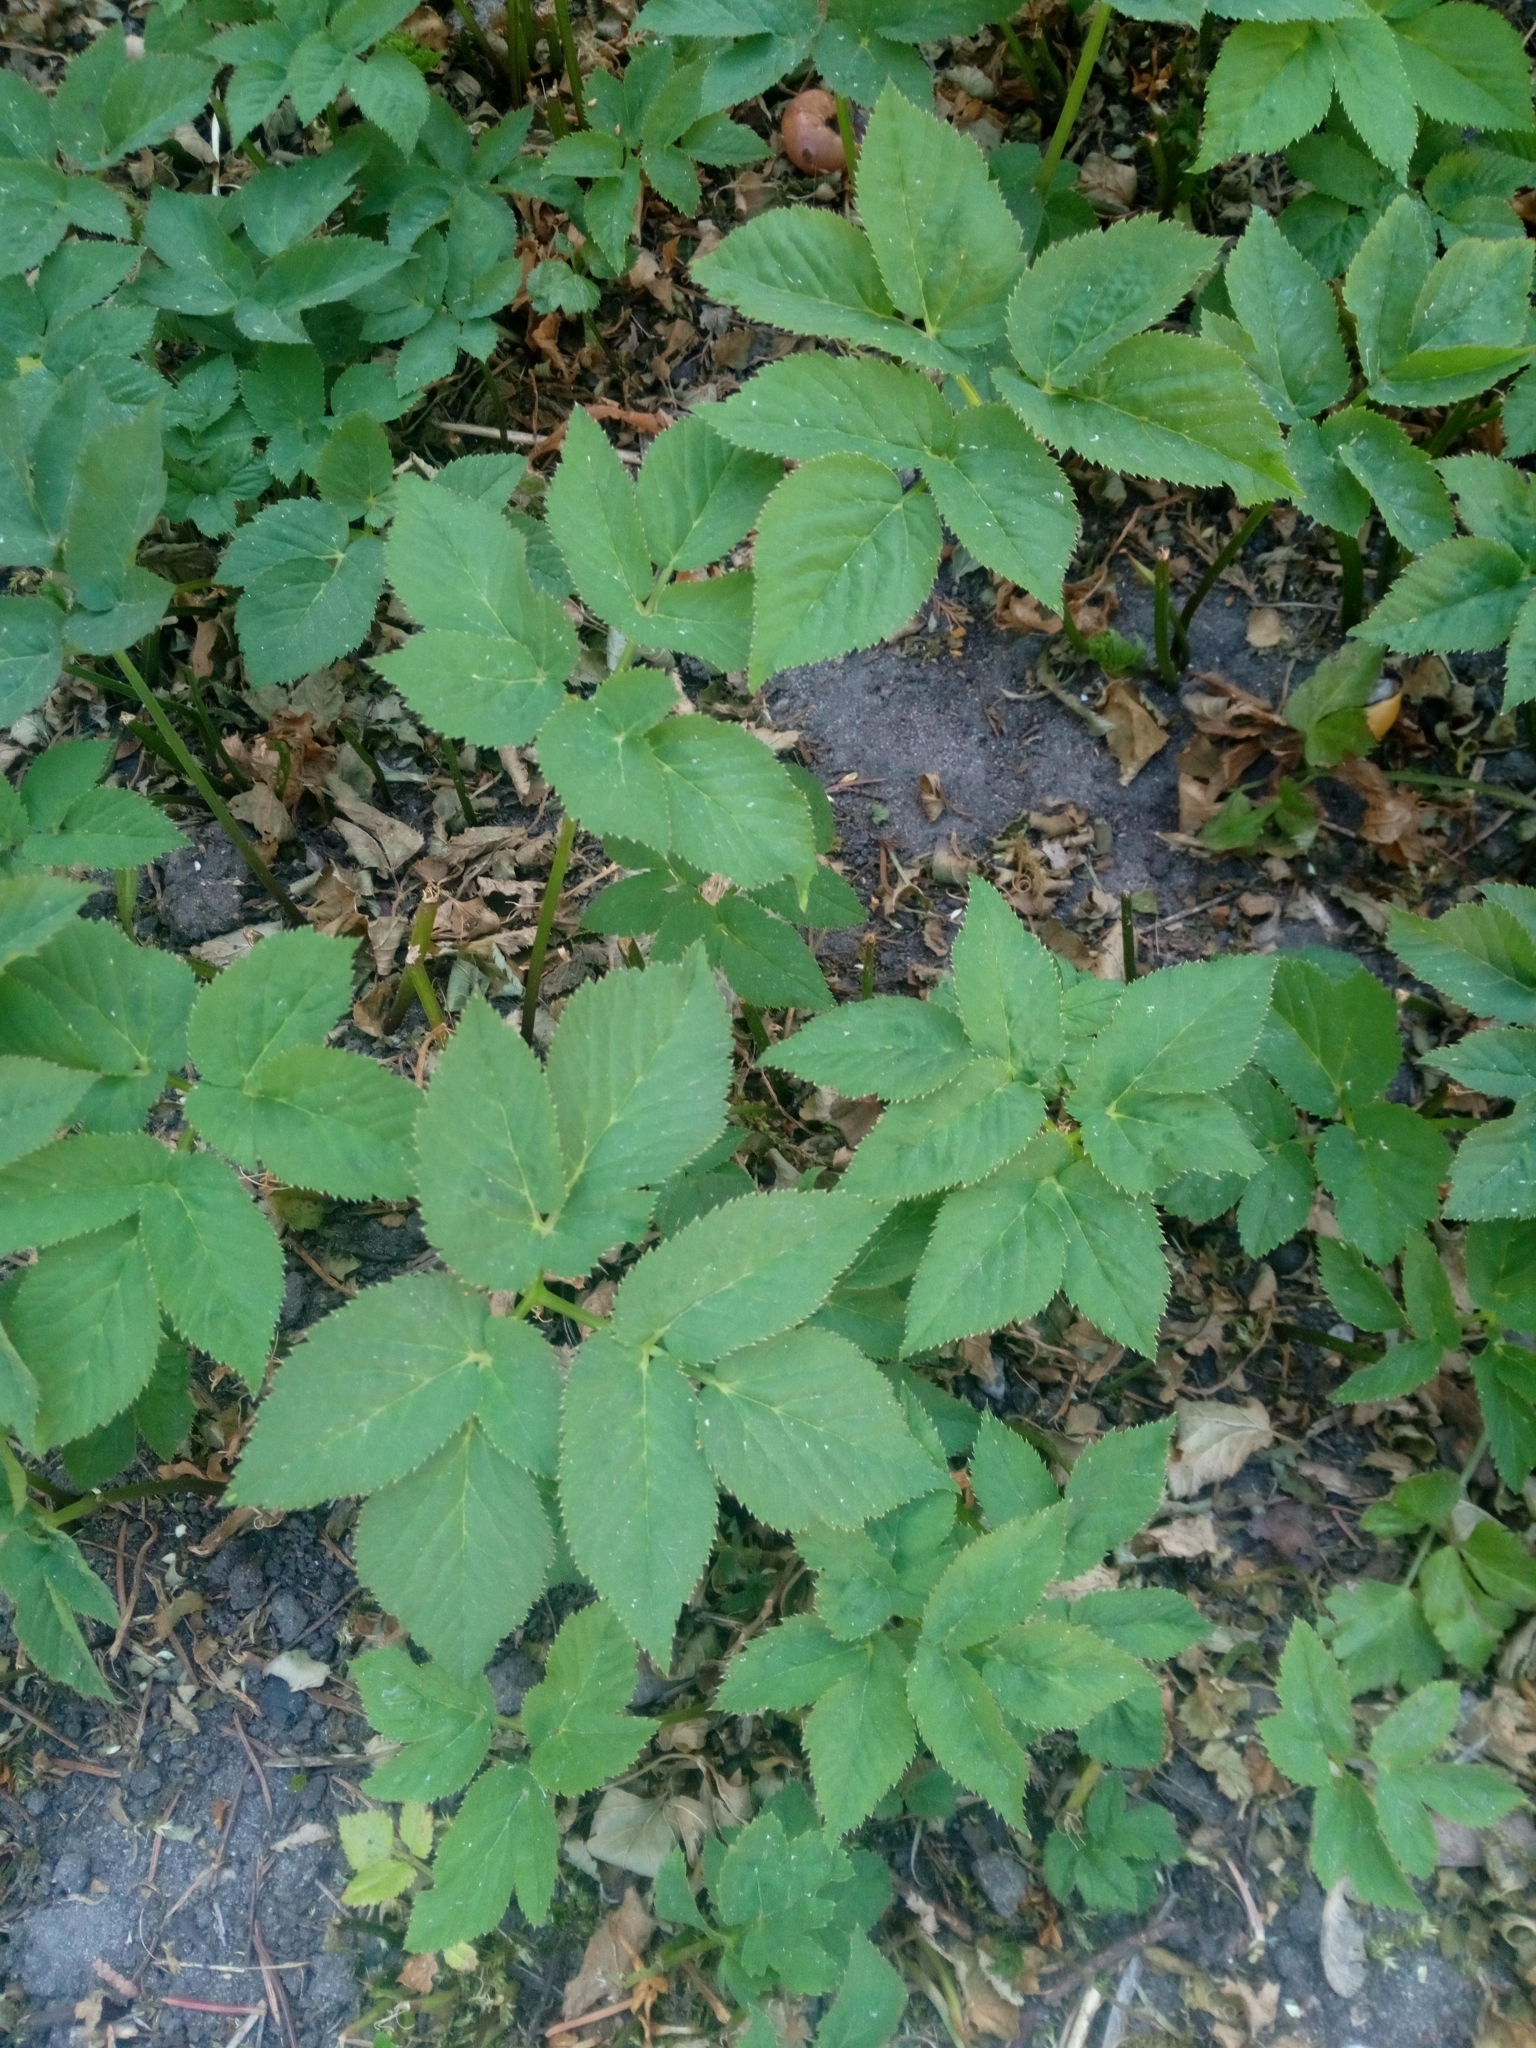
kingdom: Plantae
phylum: Tracheophyta
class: Magnoliopsida
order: Apiales
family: Apiaceae
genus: Aegopodium
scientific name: Aegopodium podagraria
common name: Ground-elder
